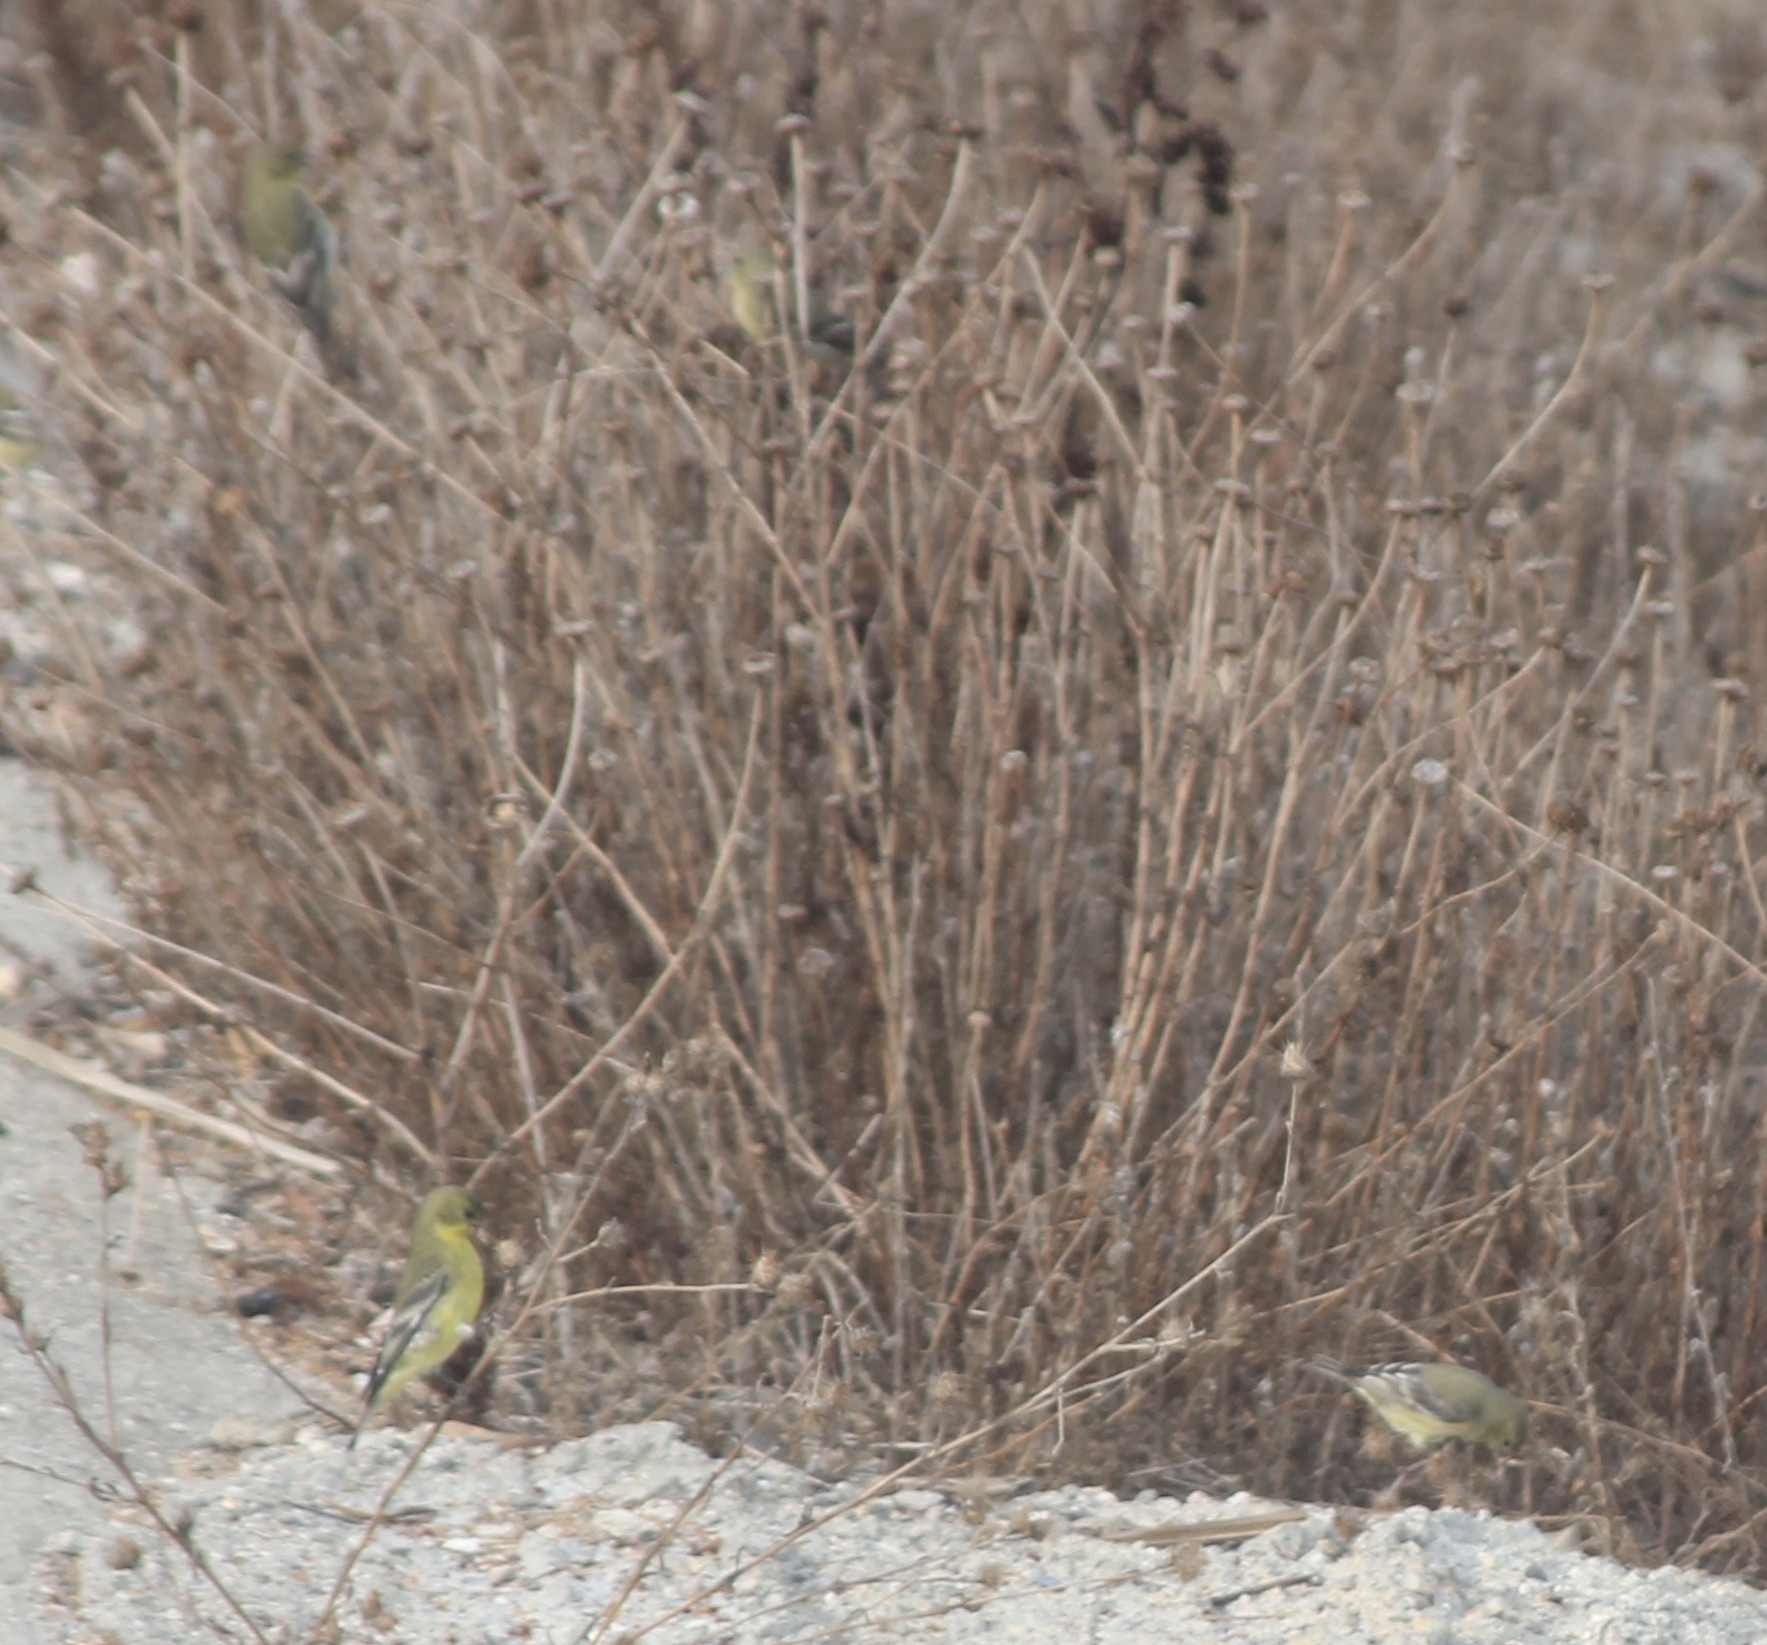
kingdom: Animalia
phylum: Chordata
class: Aves
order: Passeriformes
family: Fringillidae
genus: Spinus
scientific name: Spinus psaltria
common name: Lesser goldfinch
